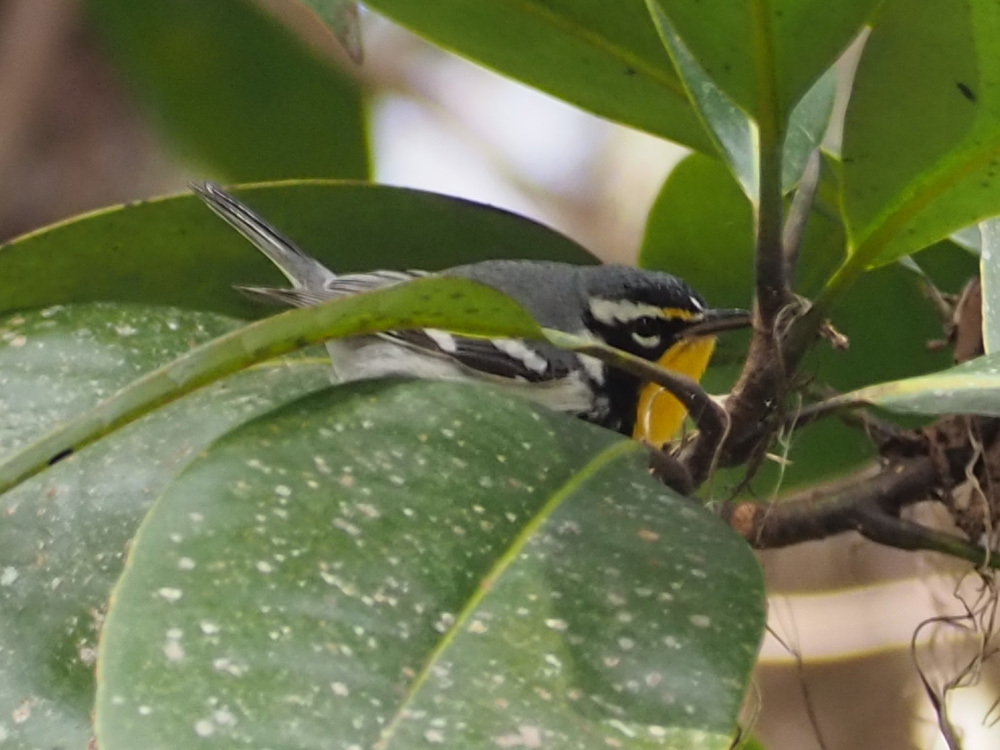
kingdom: Animalia
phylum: Chordata
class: Aves
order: Passeriformes
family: Parulidae
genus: Setophaga
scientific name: Setophaga dominica
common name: Yellow-throated warbler
